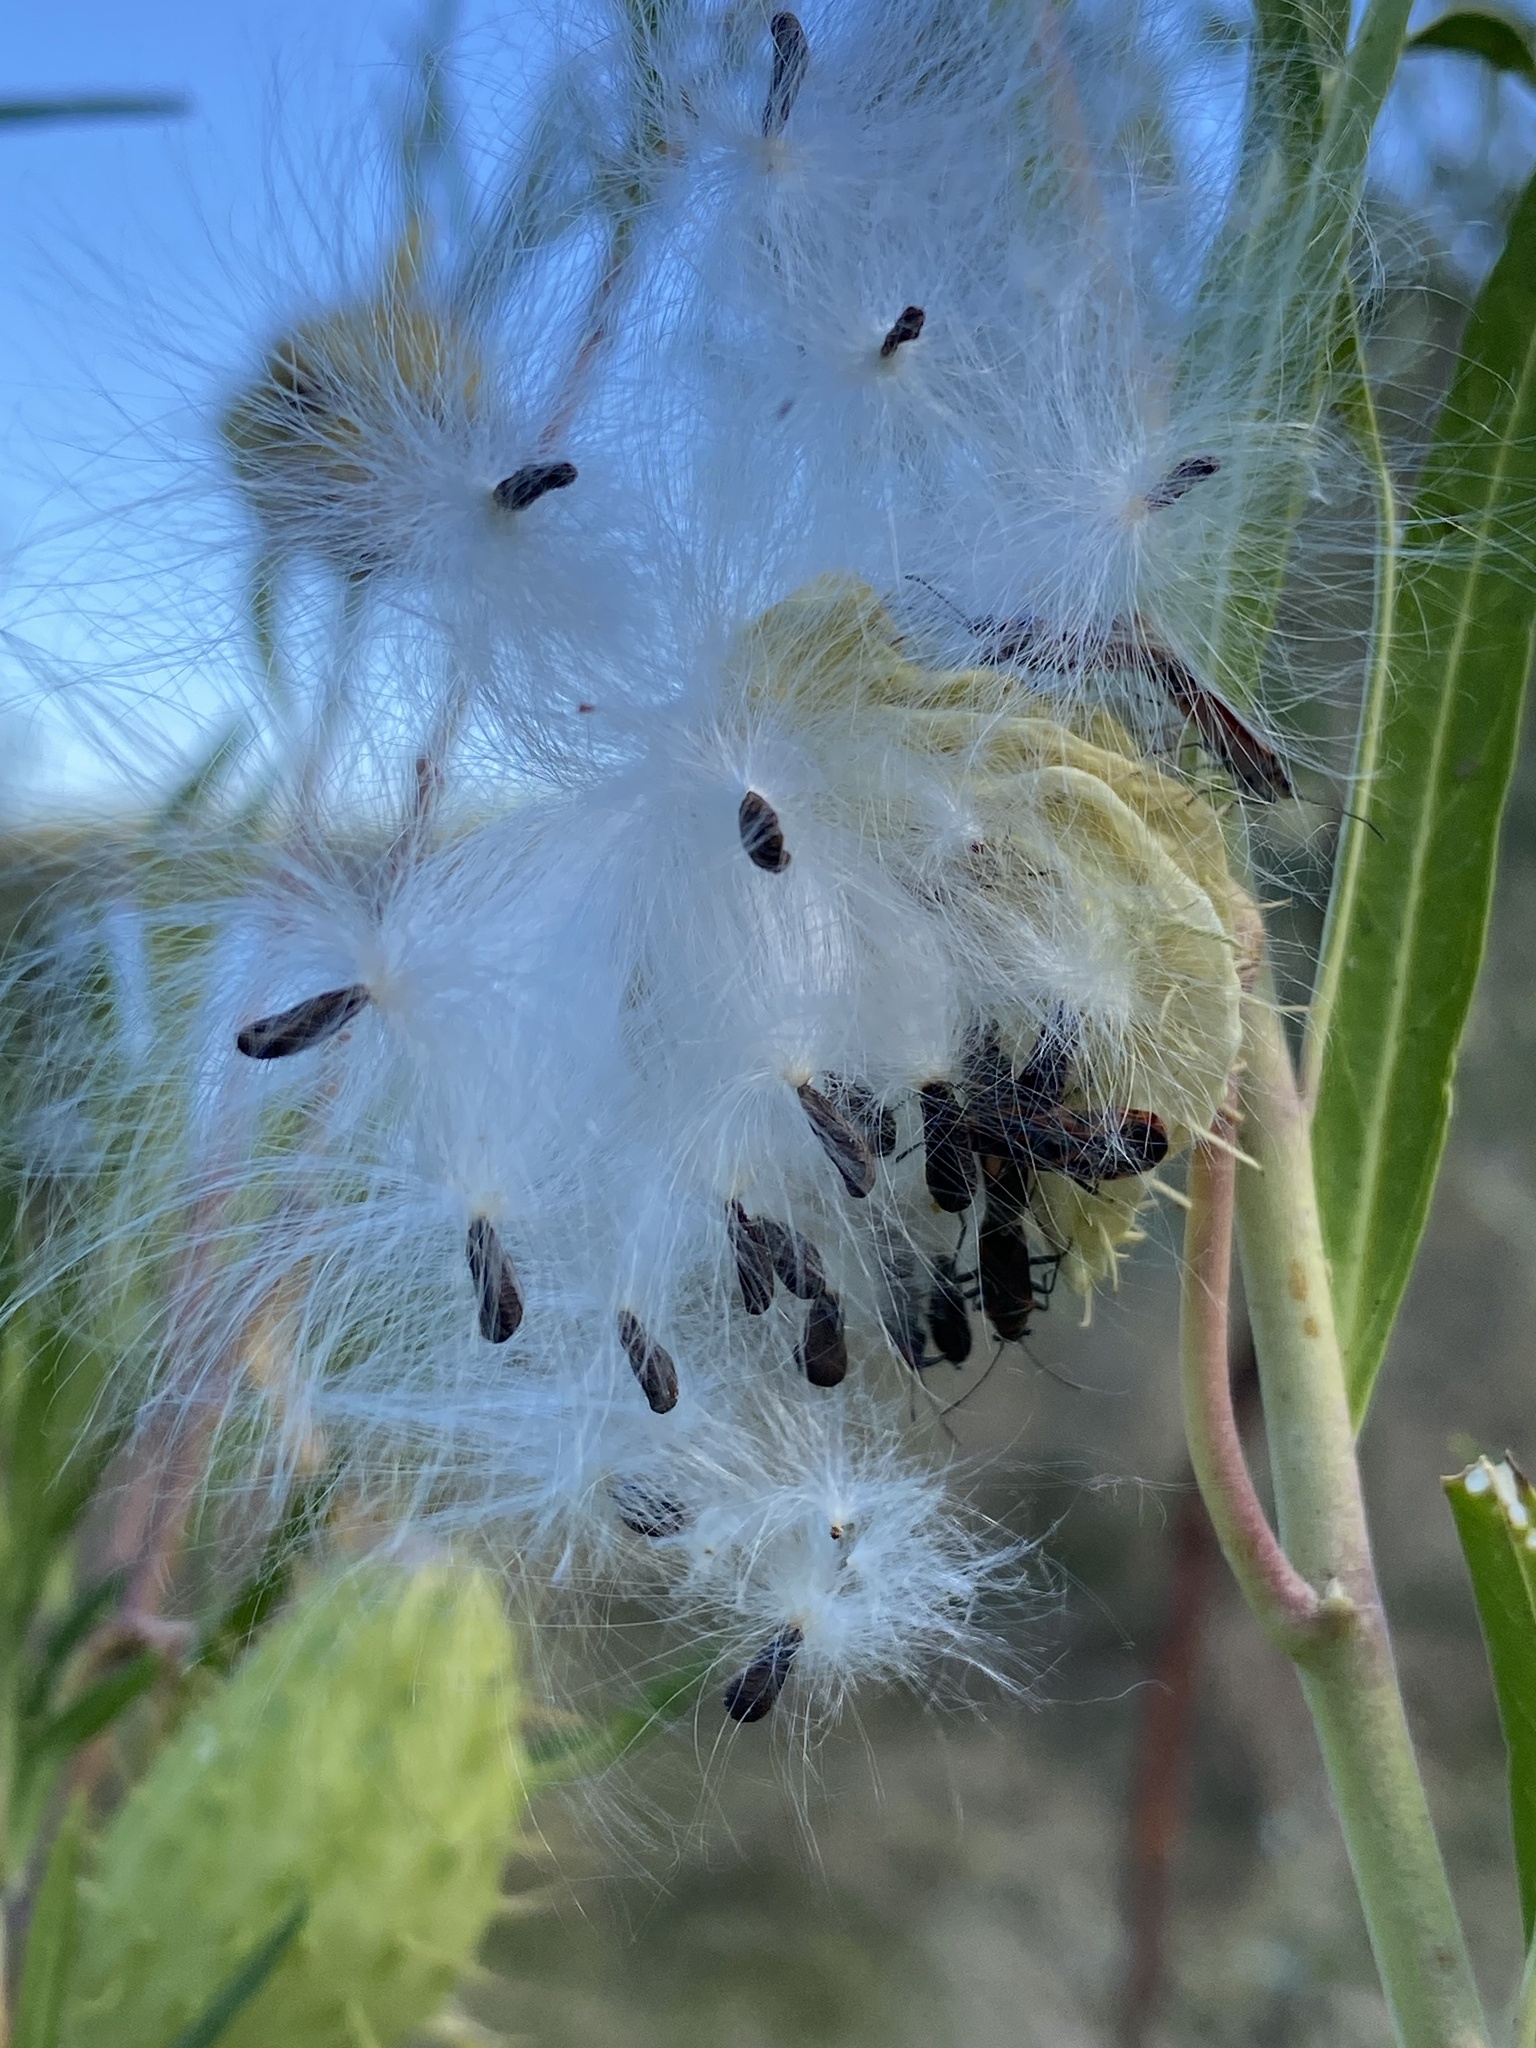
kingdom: Plantae
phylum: Tracheophyta
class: Magnoliopsida
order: Gentianales
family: Apocynaceae
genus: Gomphocarpus
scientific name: Gomphocarpus fruticosus
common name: Milkweed
